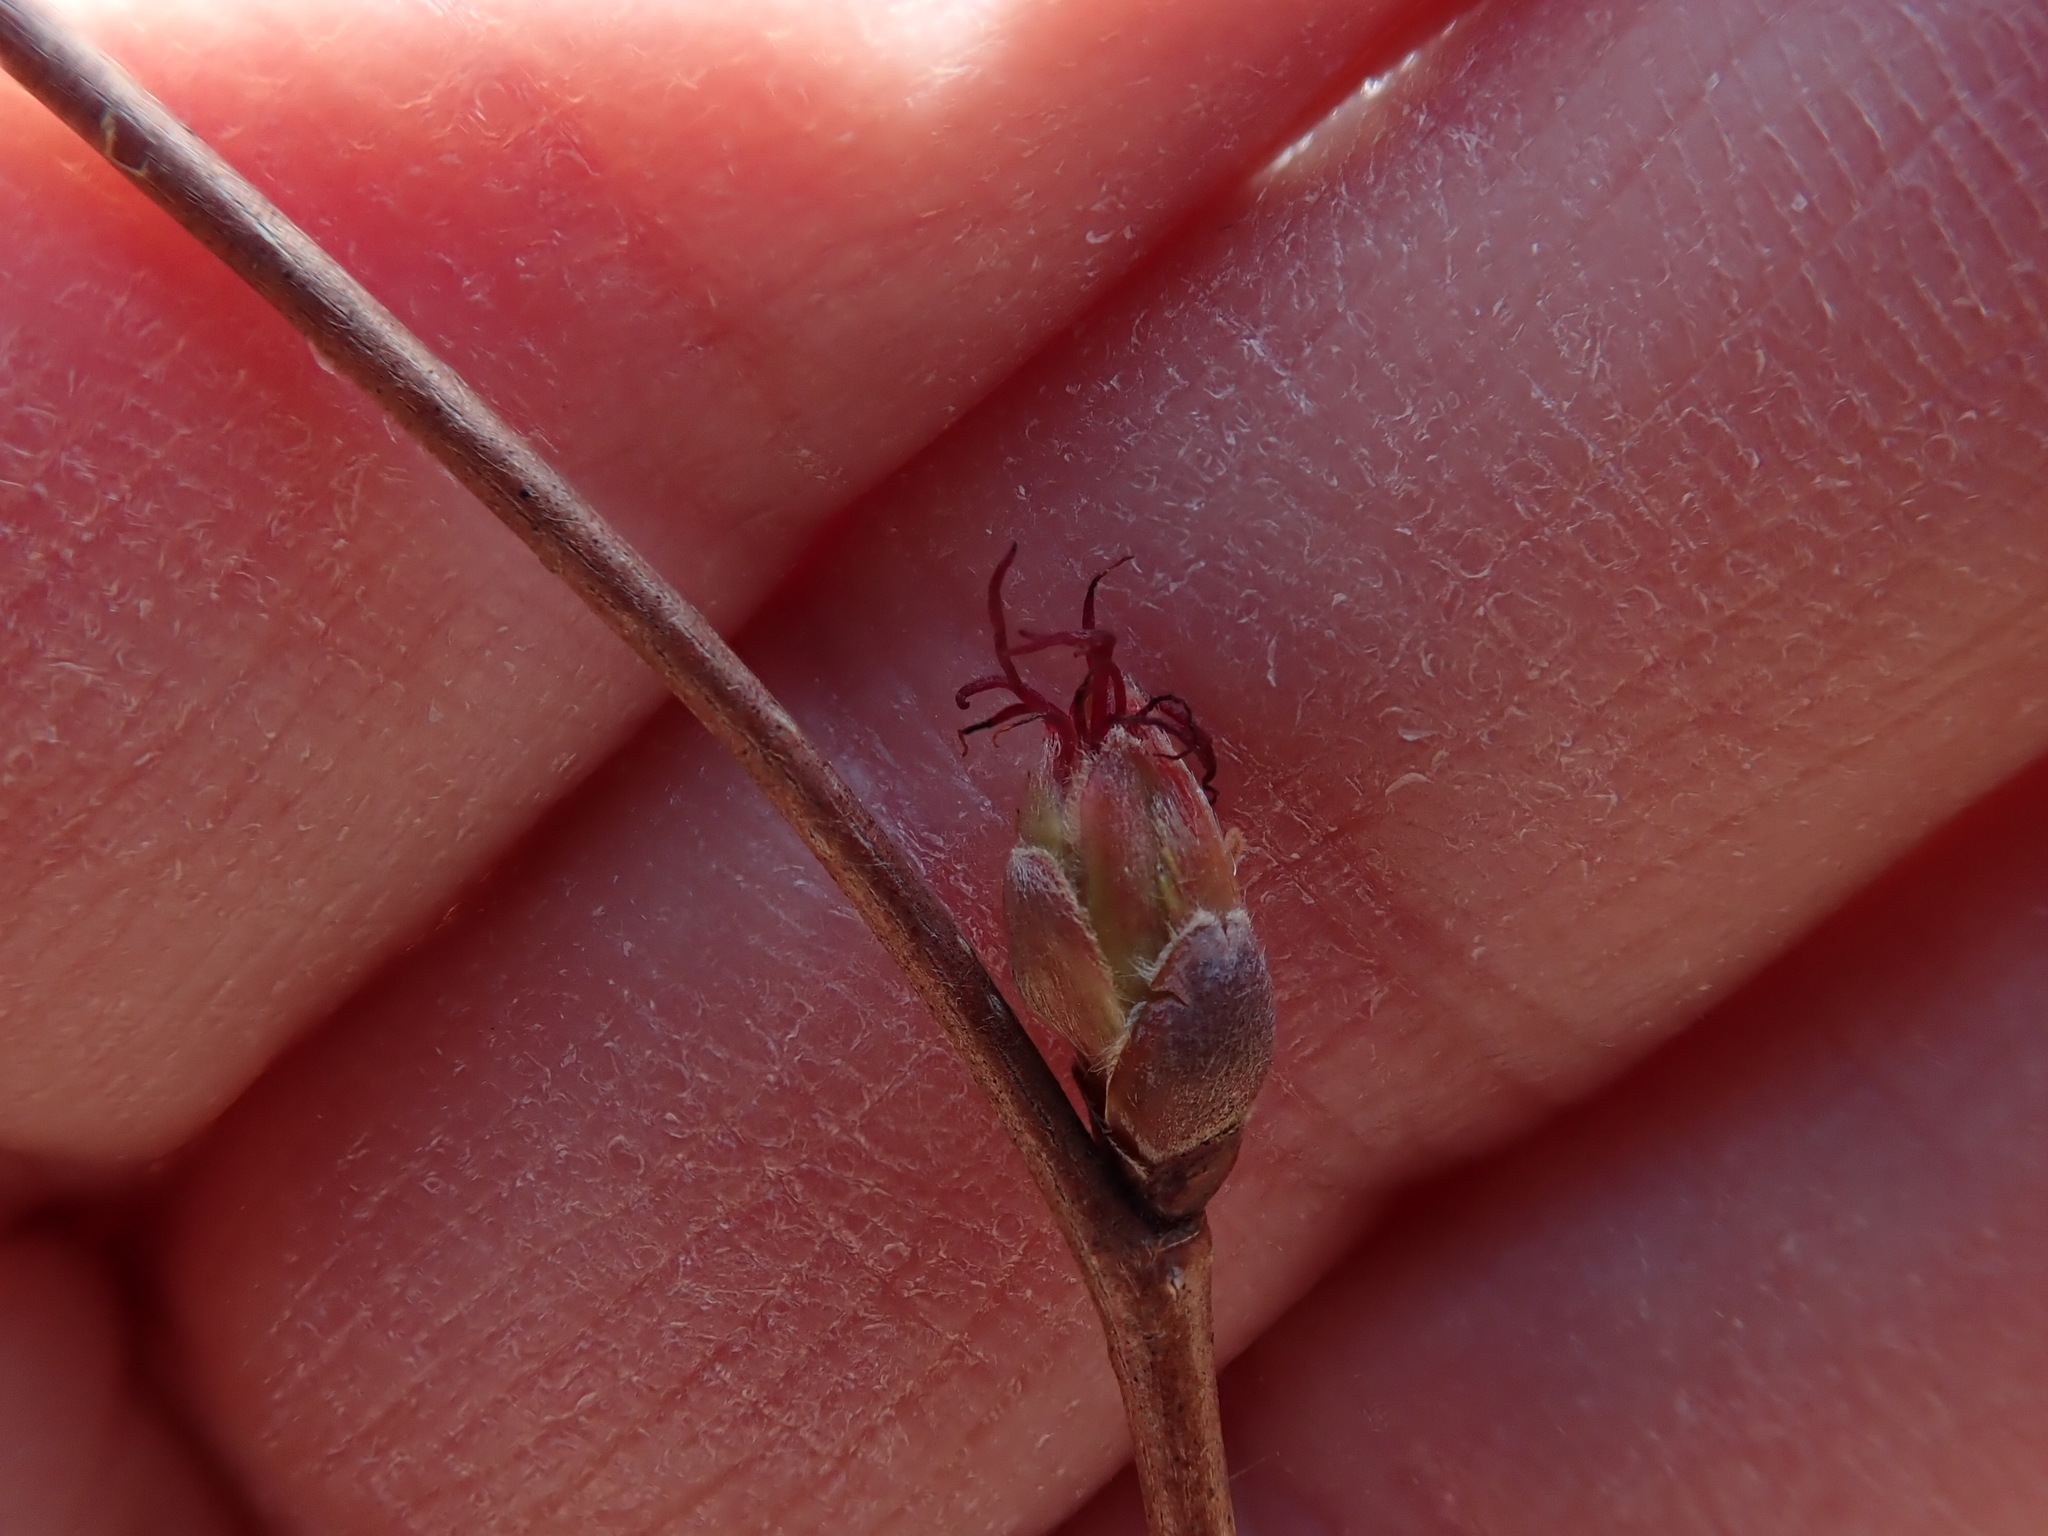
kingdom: Plantae
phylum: Tracheophyta
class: Magnoliopsida
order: Fagales
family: Betulaceae
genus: Corylus
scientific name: Corylus cornuta
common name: Beaked hazel
